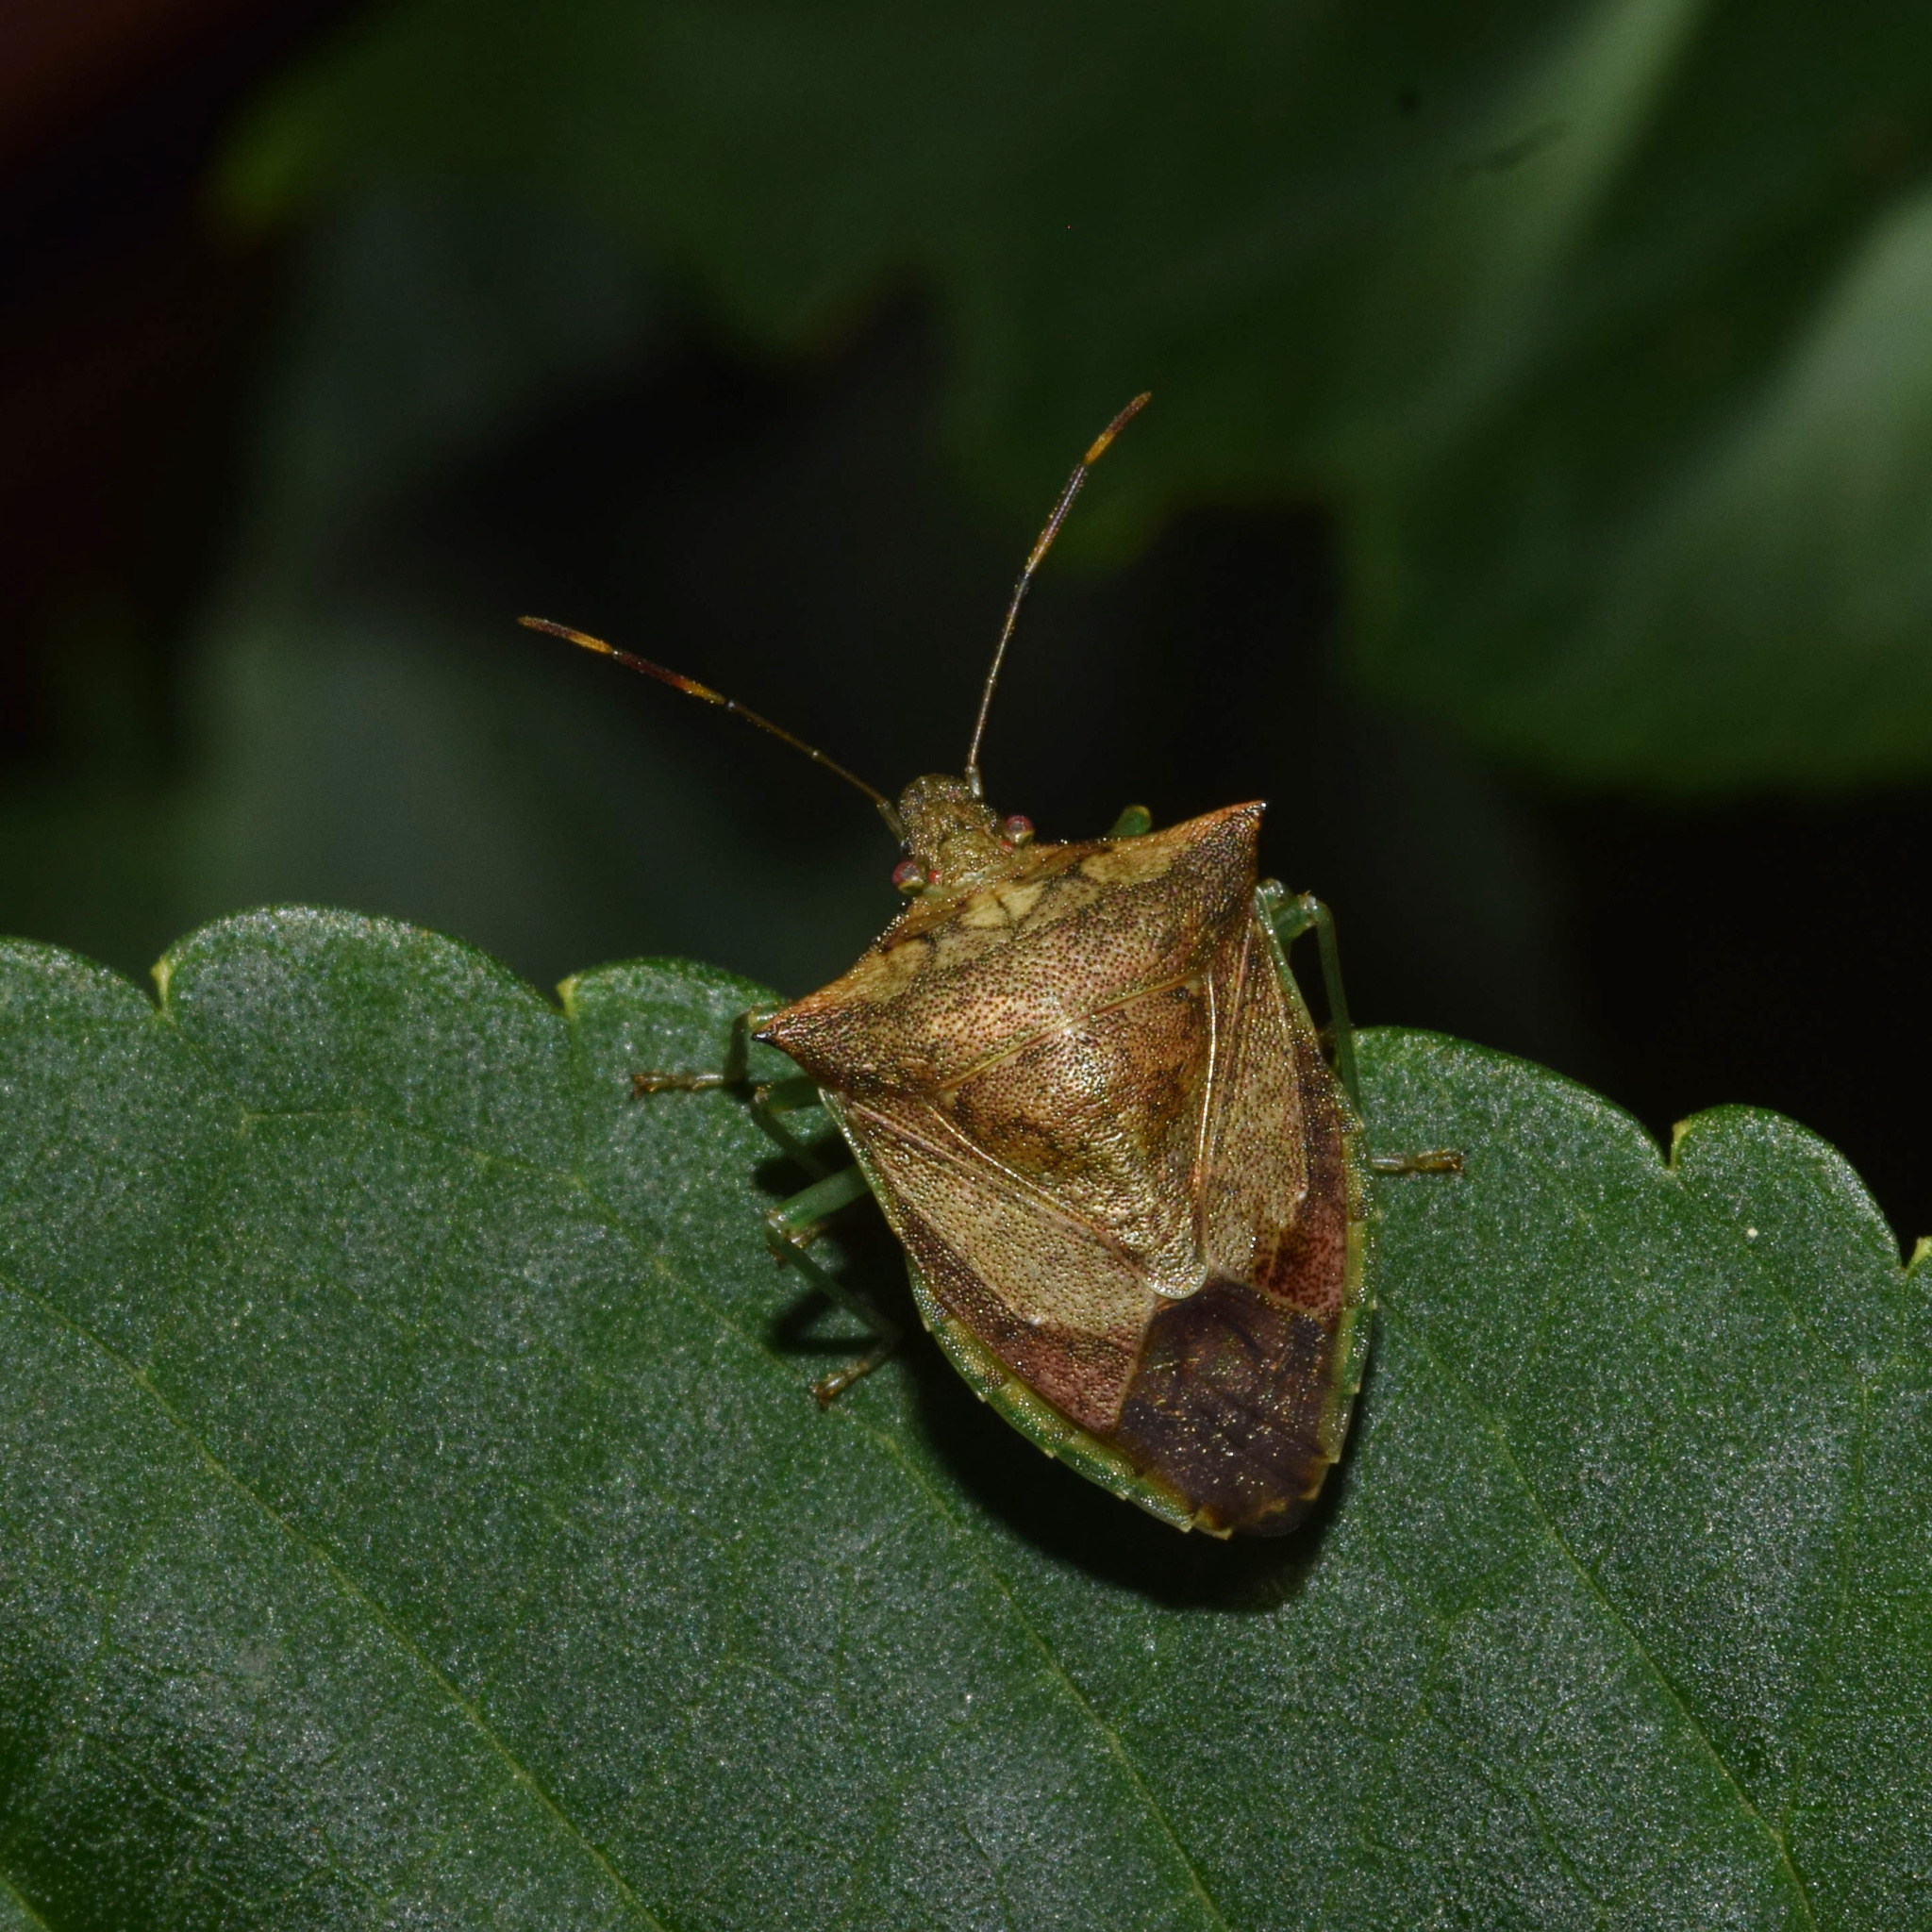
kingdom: Animalia
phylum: Arthropoda
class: Insecta
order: Hemiptera
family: Tropiduchidae
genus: Lerida
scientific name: Lerida
